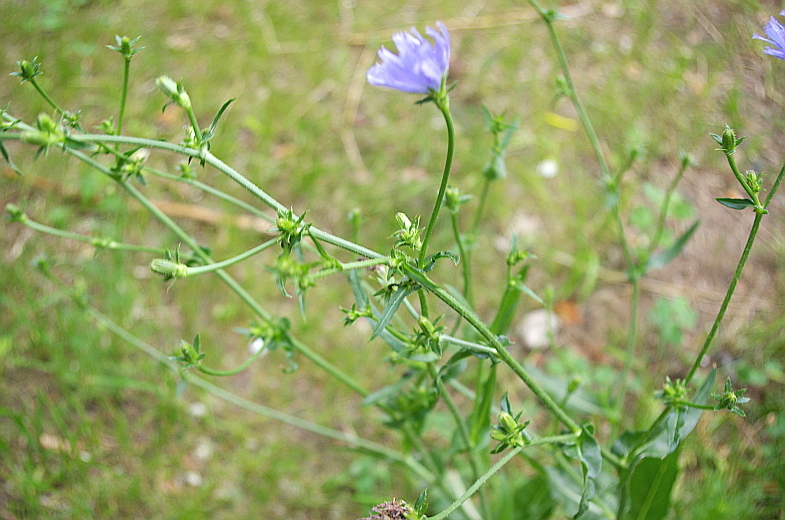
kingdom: Plantae
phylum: Tracheophyta
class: Magnoliopsida
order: Asterales
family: Asteraceae
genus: Cichorium
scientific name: Cichorium intybus
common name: Chicory
